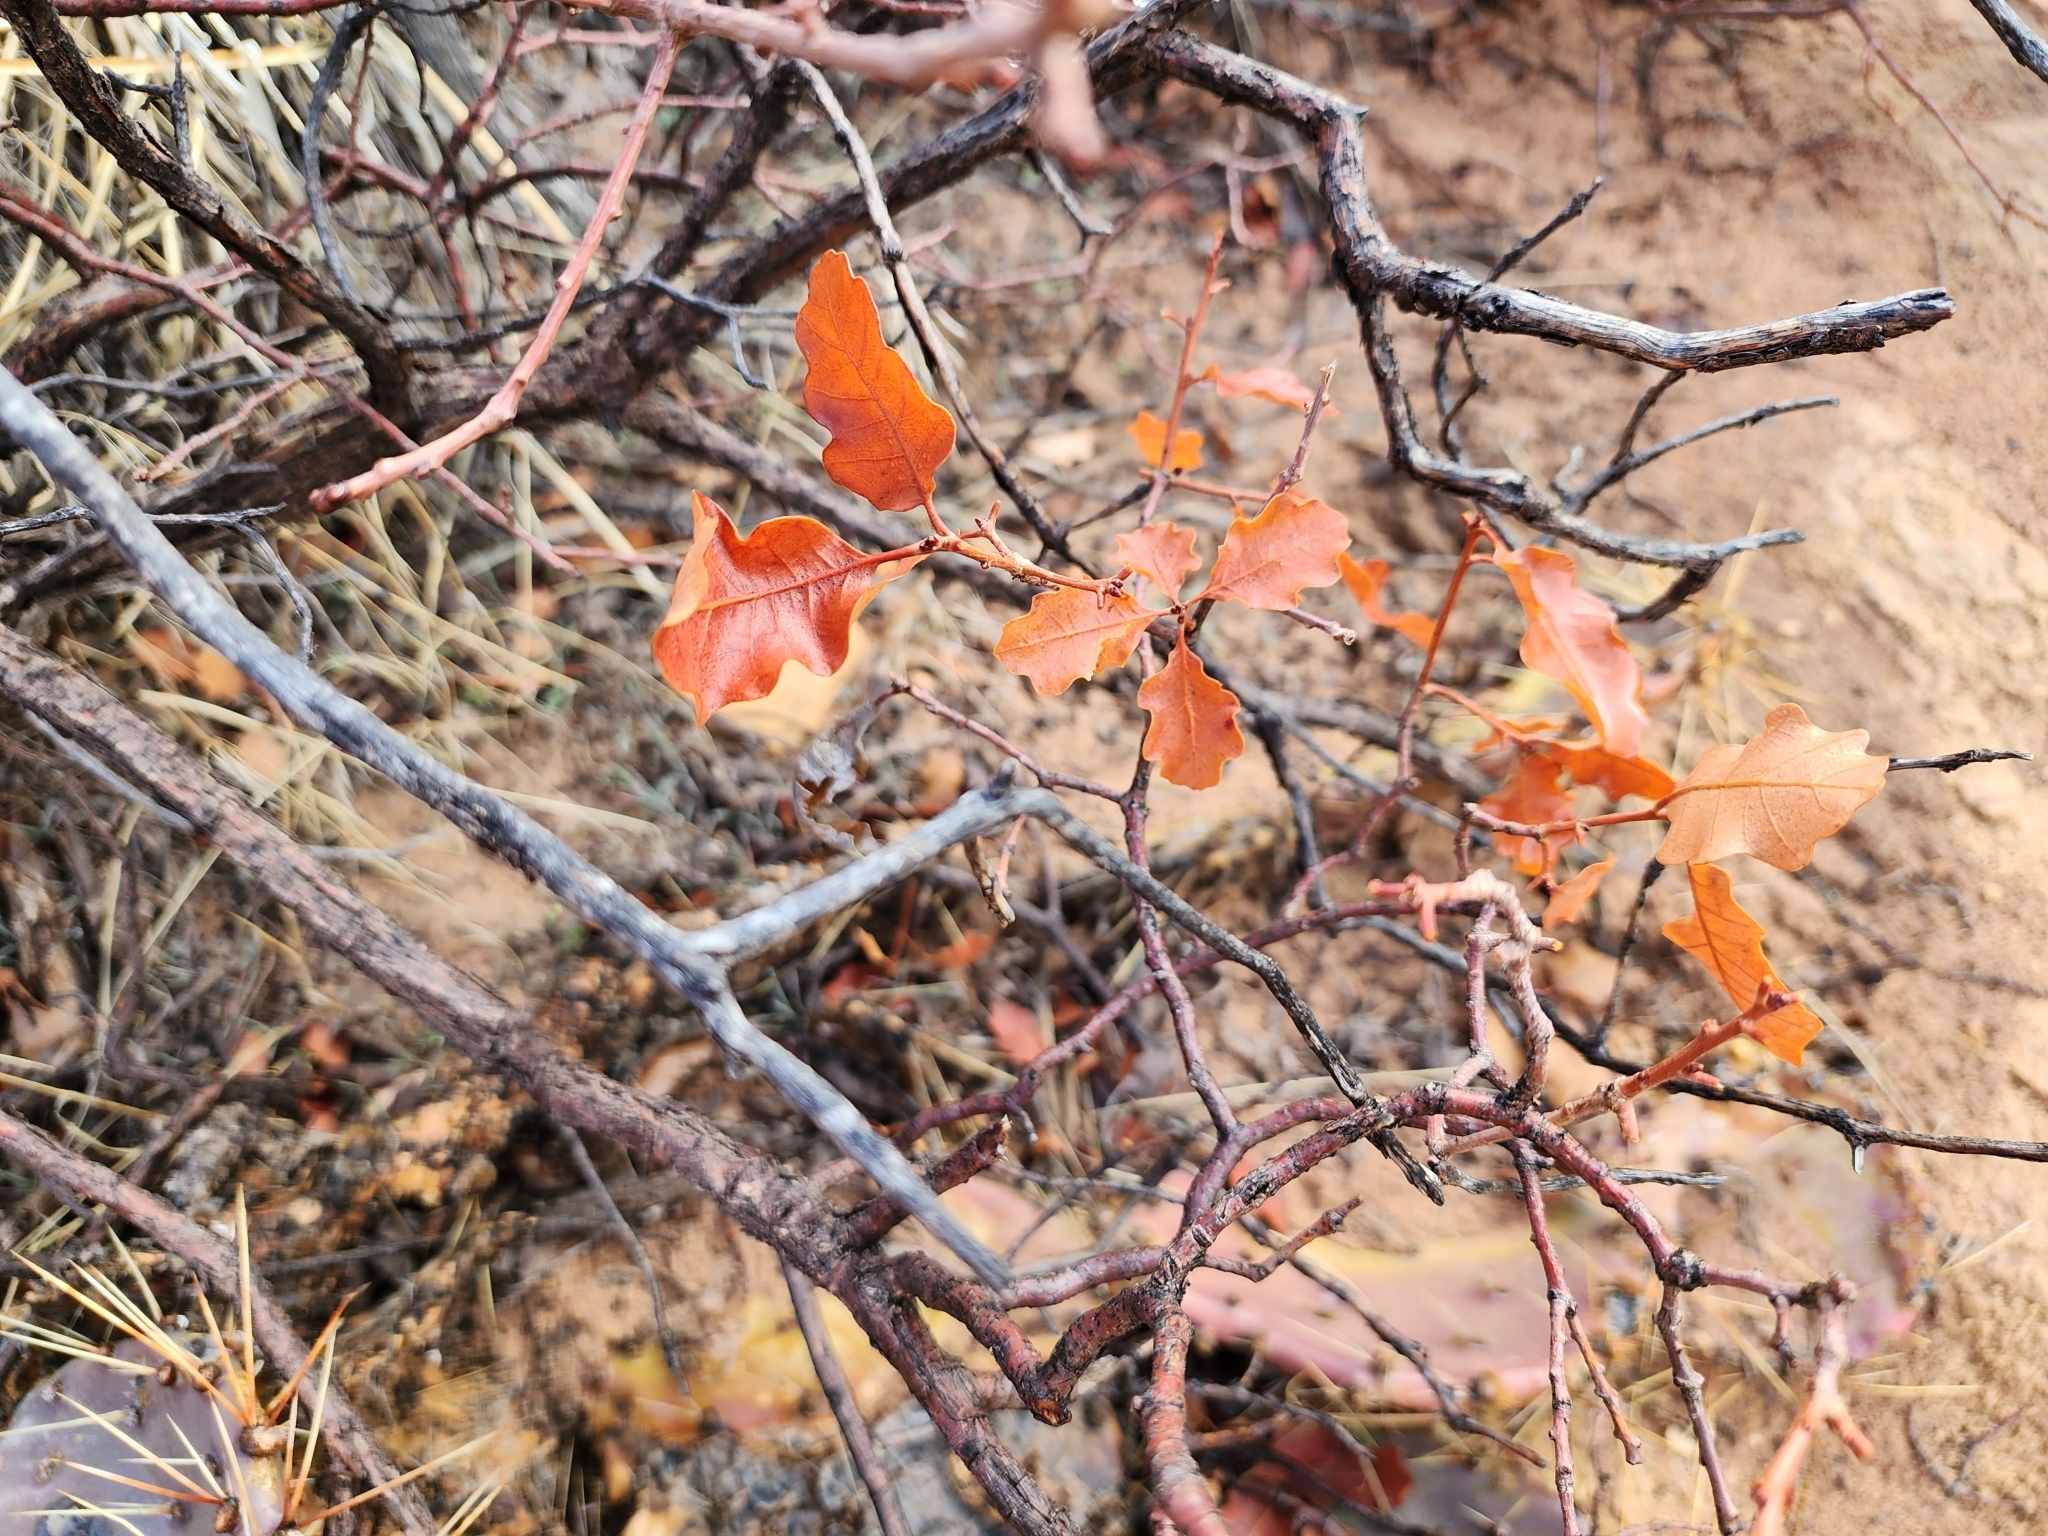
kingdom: Plantae
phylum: Tracheophyta
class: Magnoliopsida
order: Fagales
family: Fagaceae
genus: Quercus
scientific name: Quercus gambelii
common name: Gambel oak
